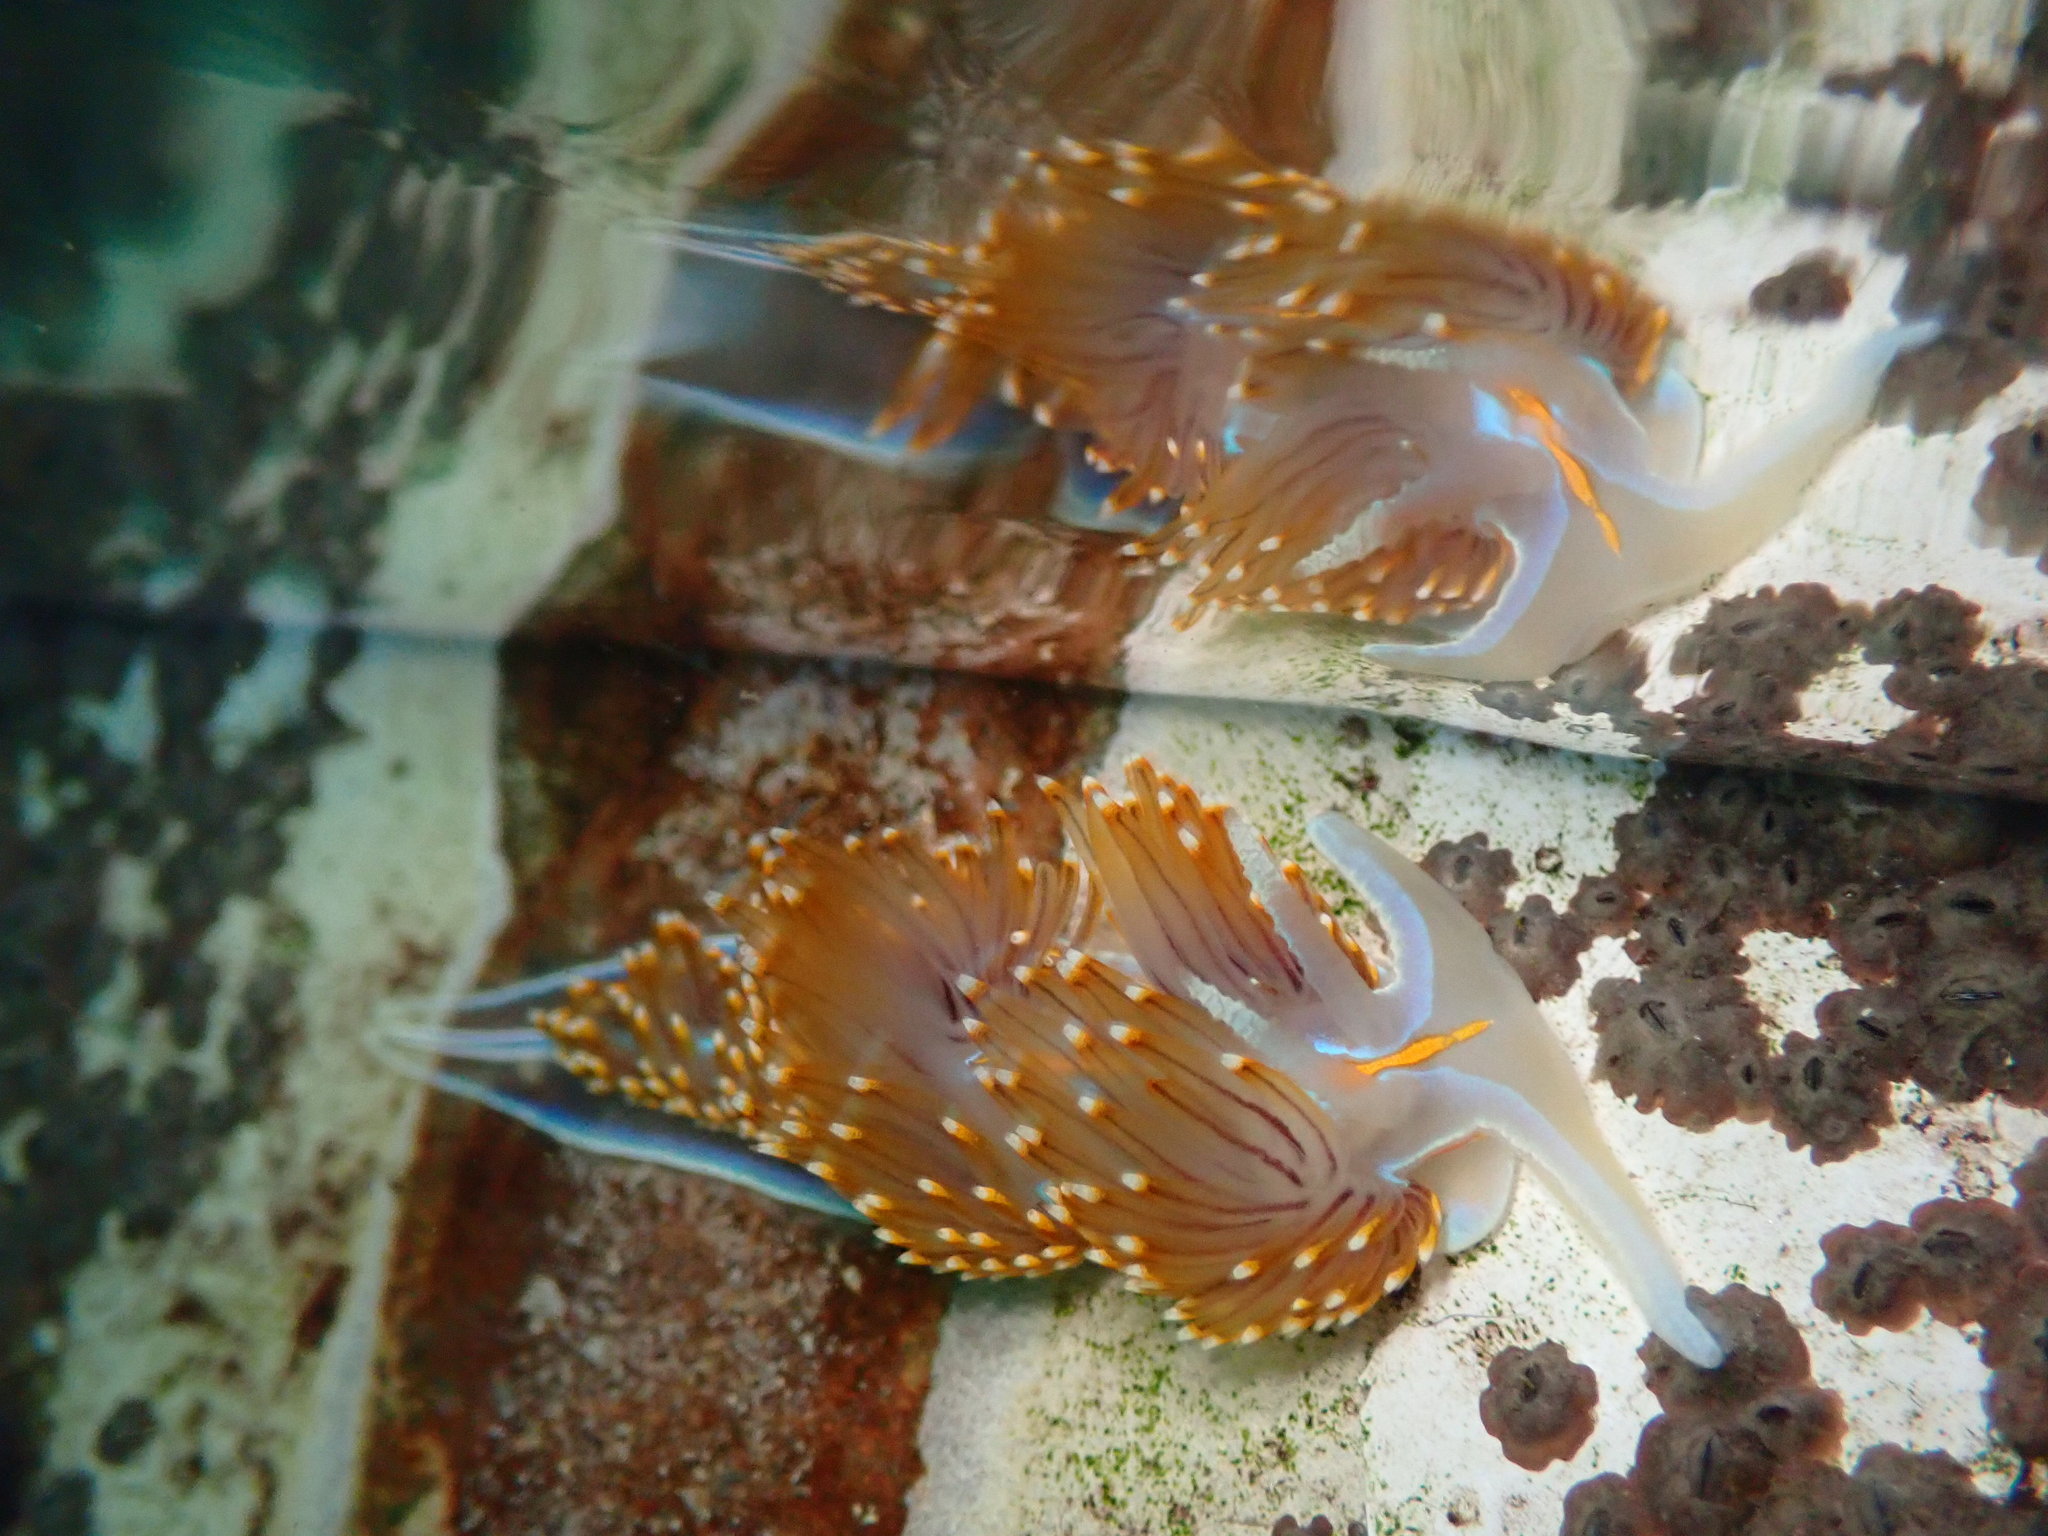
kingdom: Animalia
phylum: Mollusca
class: Gastropoda
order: Nudibranchia
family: Myrrhinidae
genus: Hermissenda
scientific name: Hermissenda opalescens
